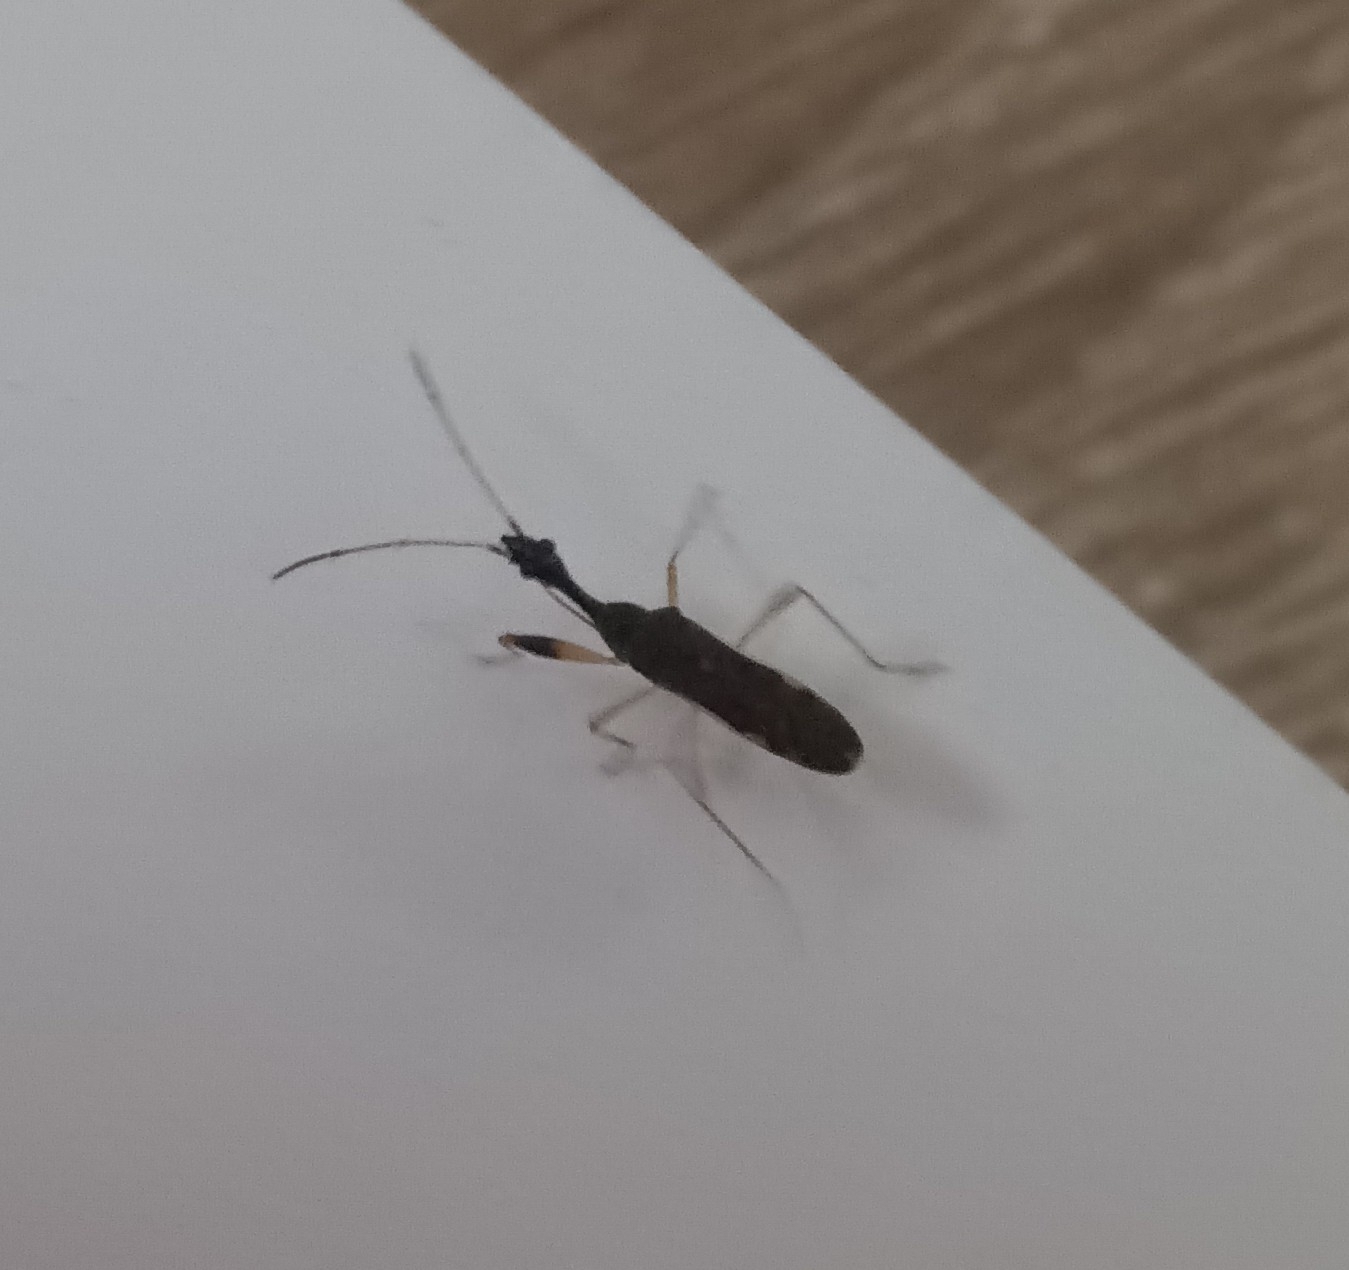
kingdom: Animalia
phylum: Arthropoda
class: Insecta
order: Hemiptera
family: Rhyparochromidae
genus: Myodocha
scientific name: Myodocha serripes
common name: Long-necked seed bug
